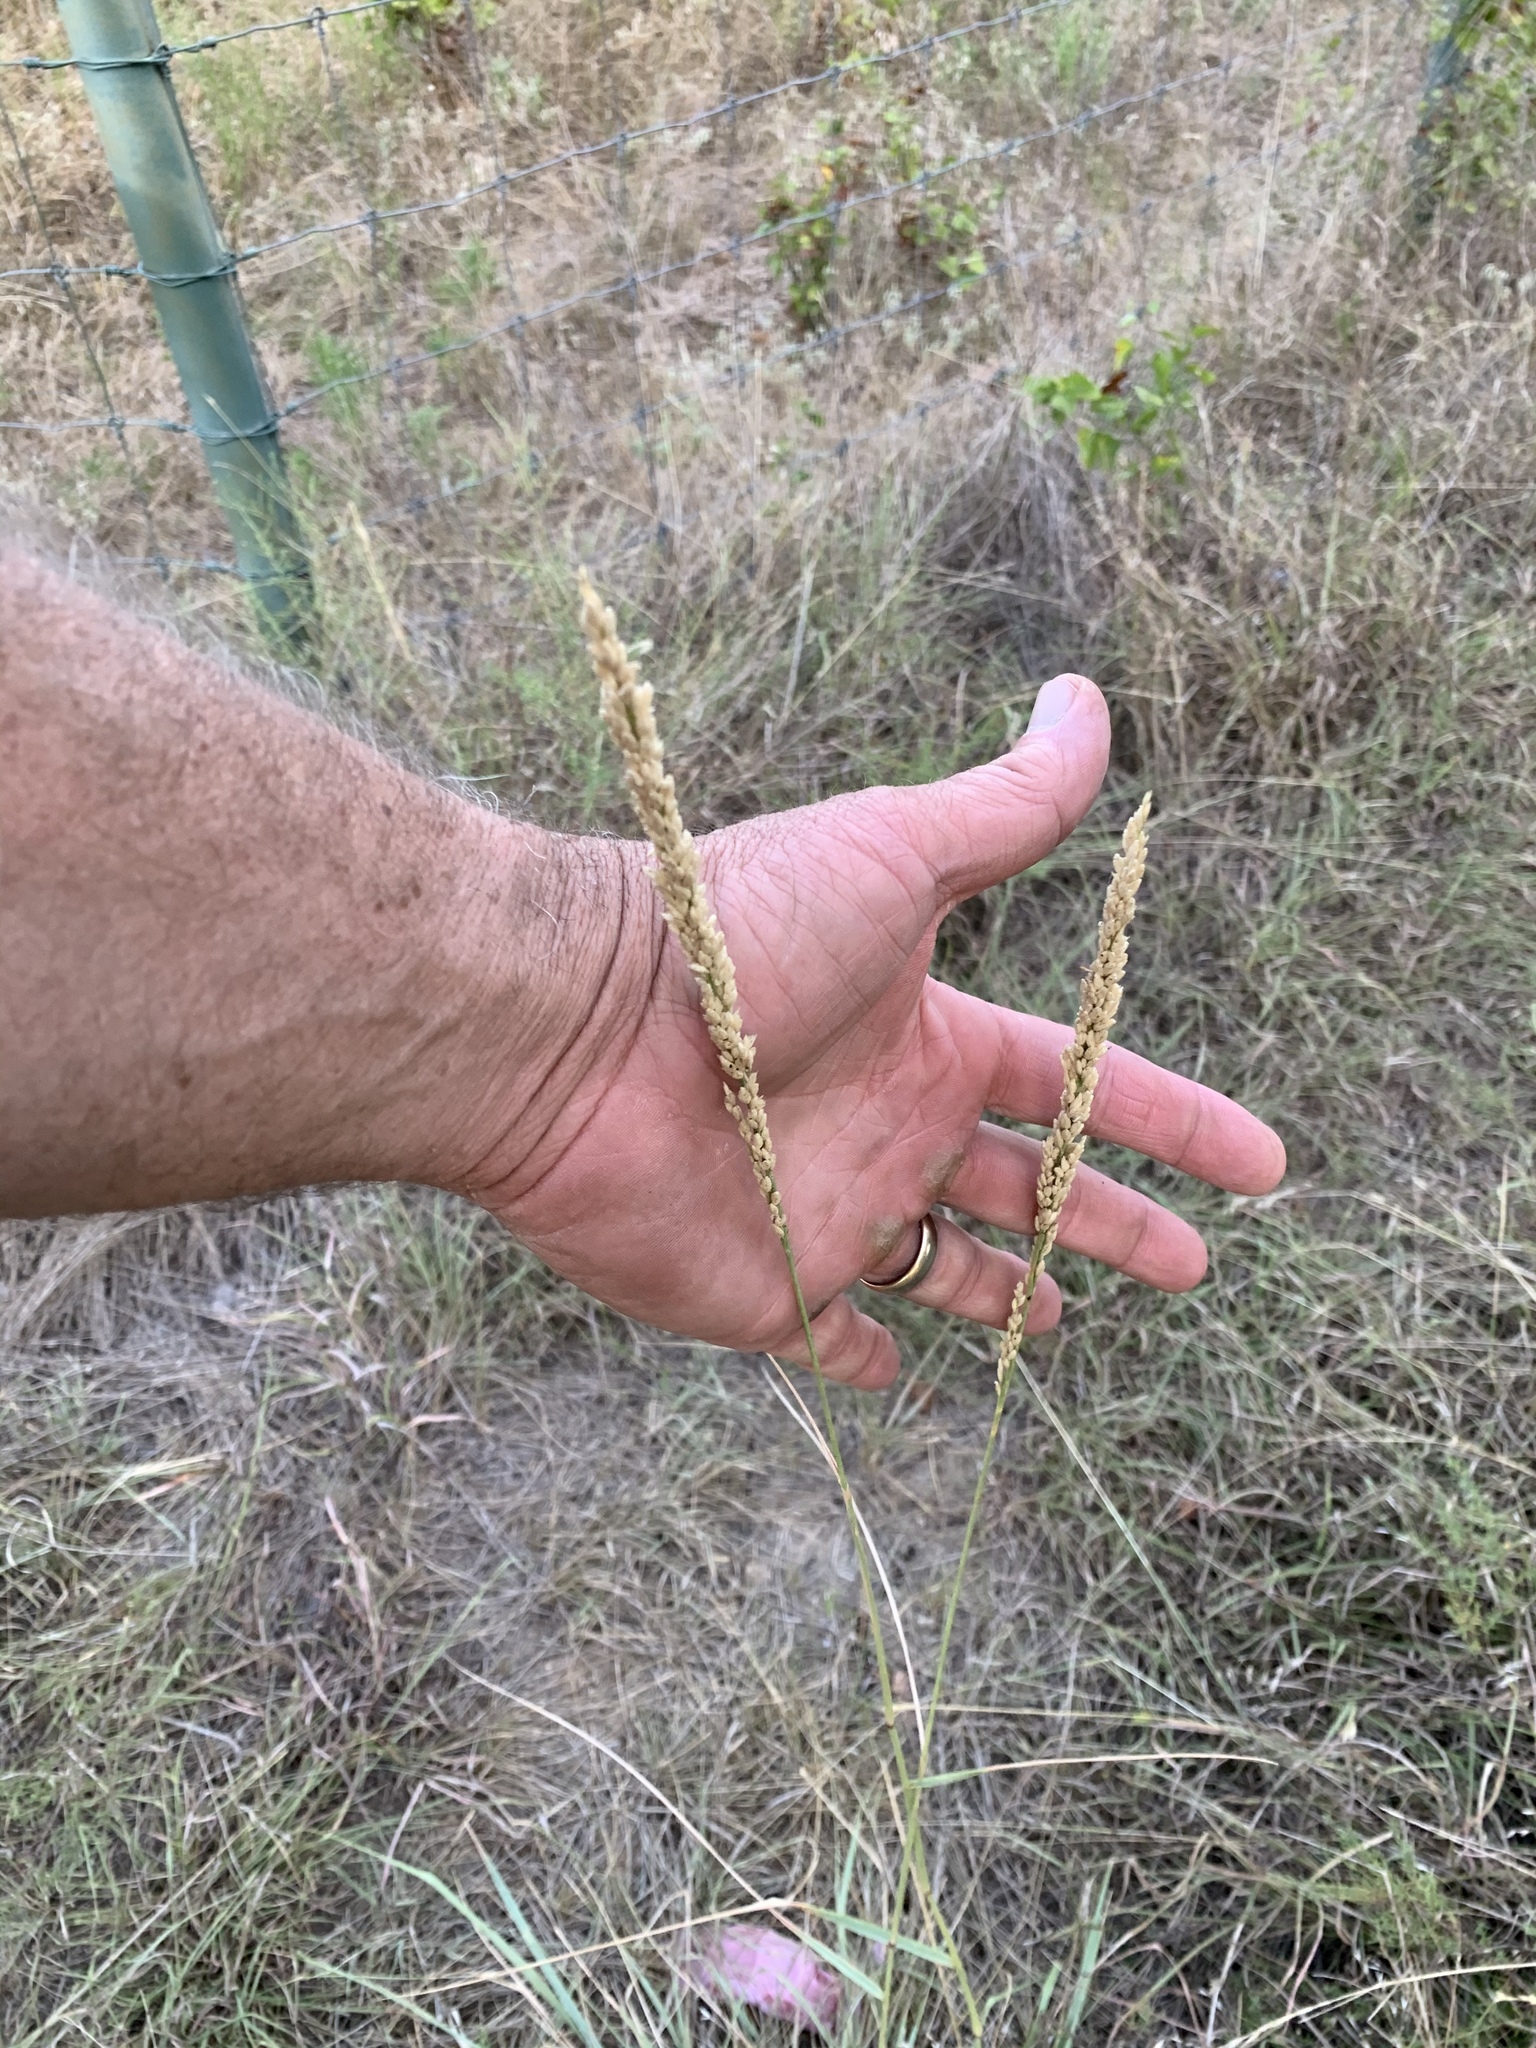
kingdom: Plantae
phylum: Tracheophyta
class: Liliopsida
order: Poales
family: Poaceae
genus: Tridens
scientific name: Tridens albescens
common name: White tridens
